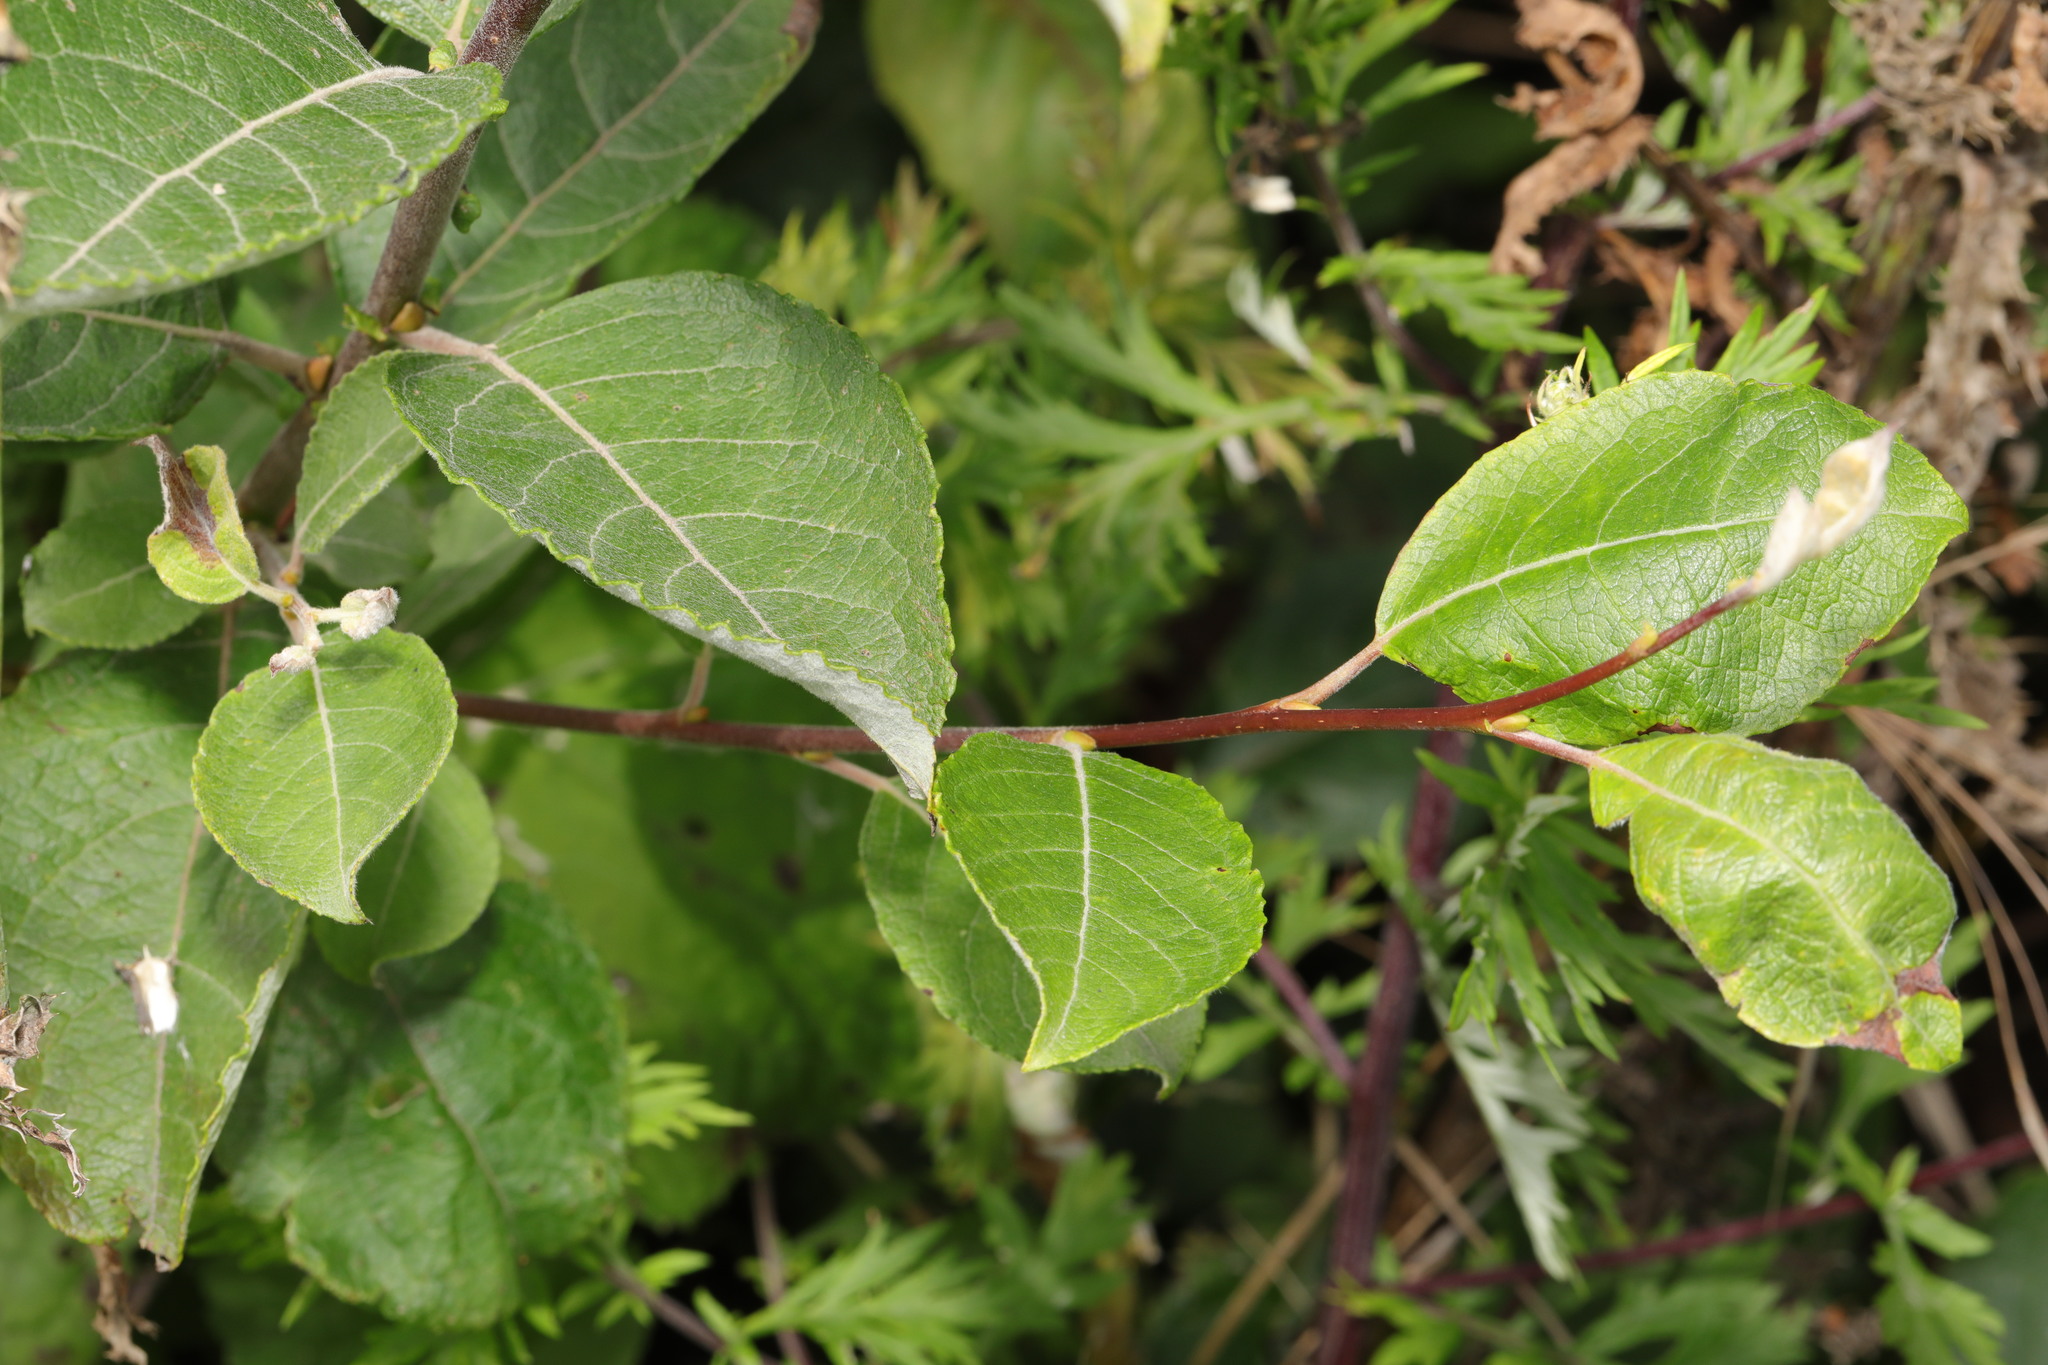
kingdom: Plantae
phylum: Tracheophyta
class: Magnoliopsida
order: Malpighiales
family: Salicaceae
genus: Salix
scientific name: Salix caprea
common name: Goat willow
